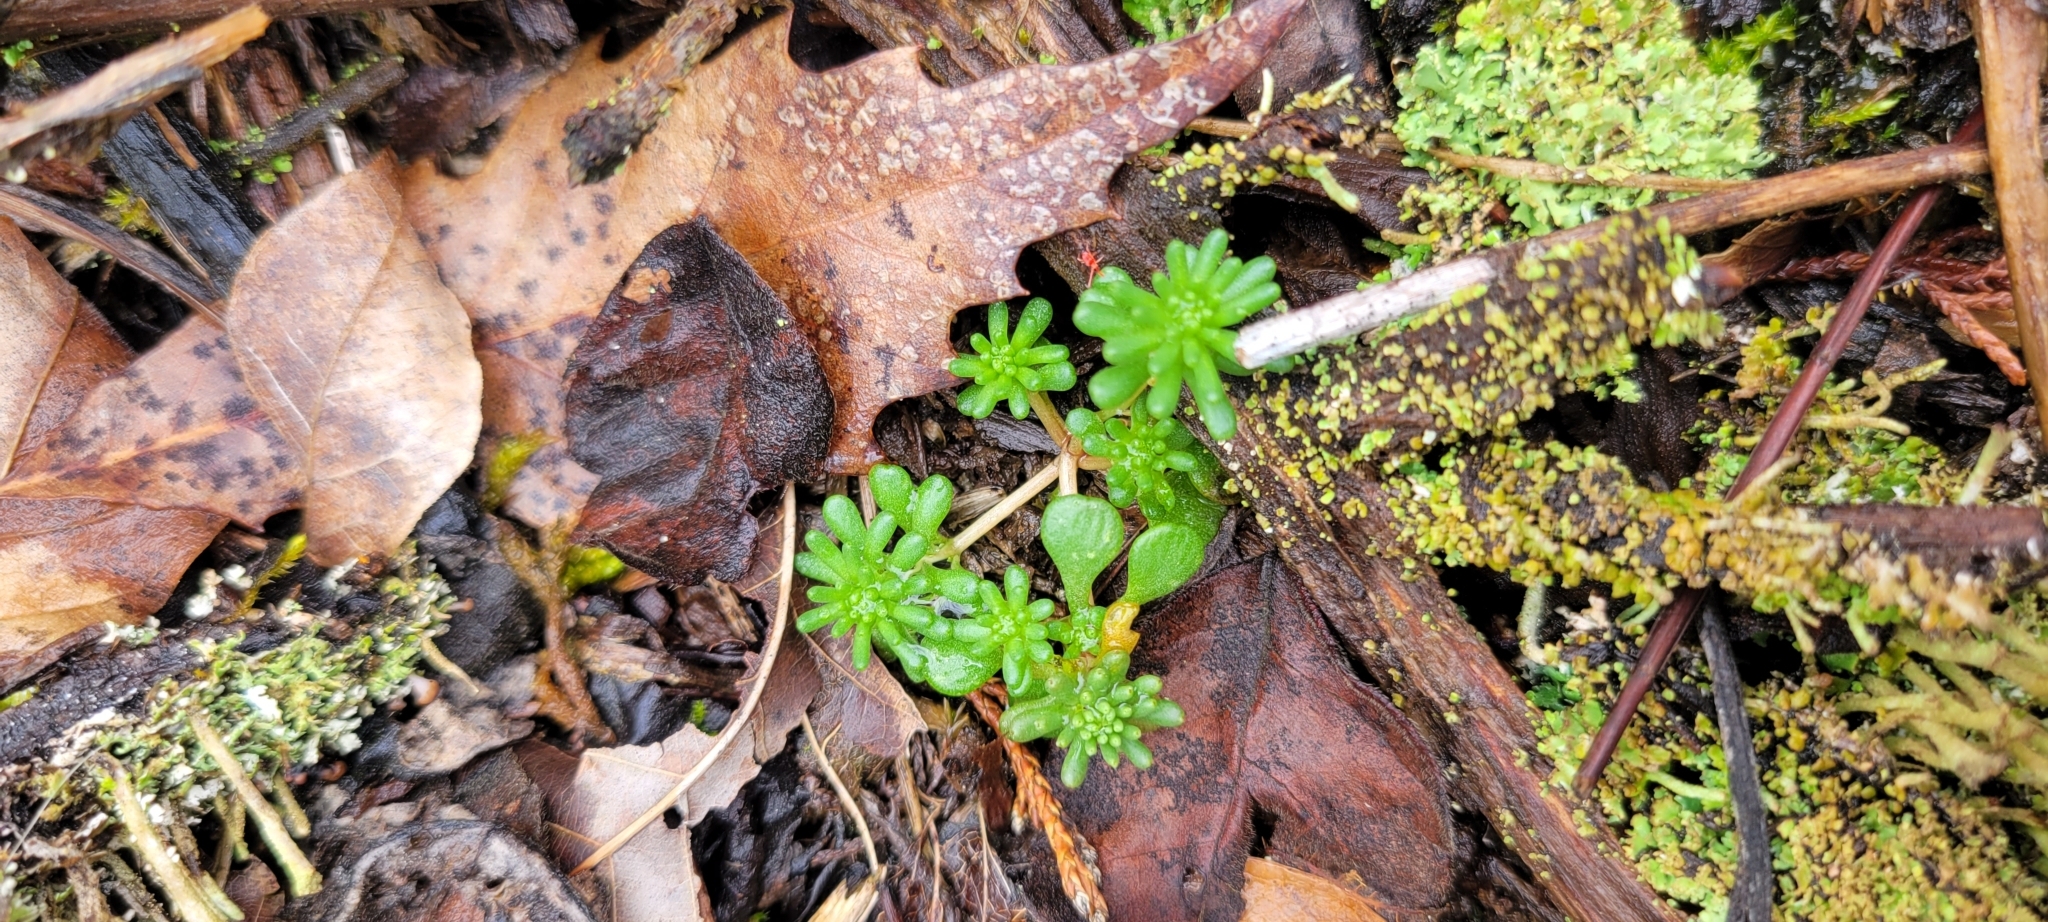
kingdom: Plantae
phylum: Tracheophyta
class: Magnoliopsida
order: Saxifragales
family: Crassulaceae
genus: Sedum
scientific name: Sedum pulchellum
